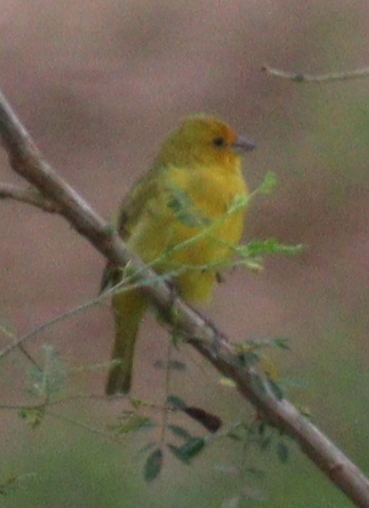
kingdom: Animalia
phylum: Chordata
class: Aves
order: Passeriformes
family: Thraupidae
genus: Sicalis
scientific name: Sicalis flaveola
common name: Saffron finch
